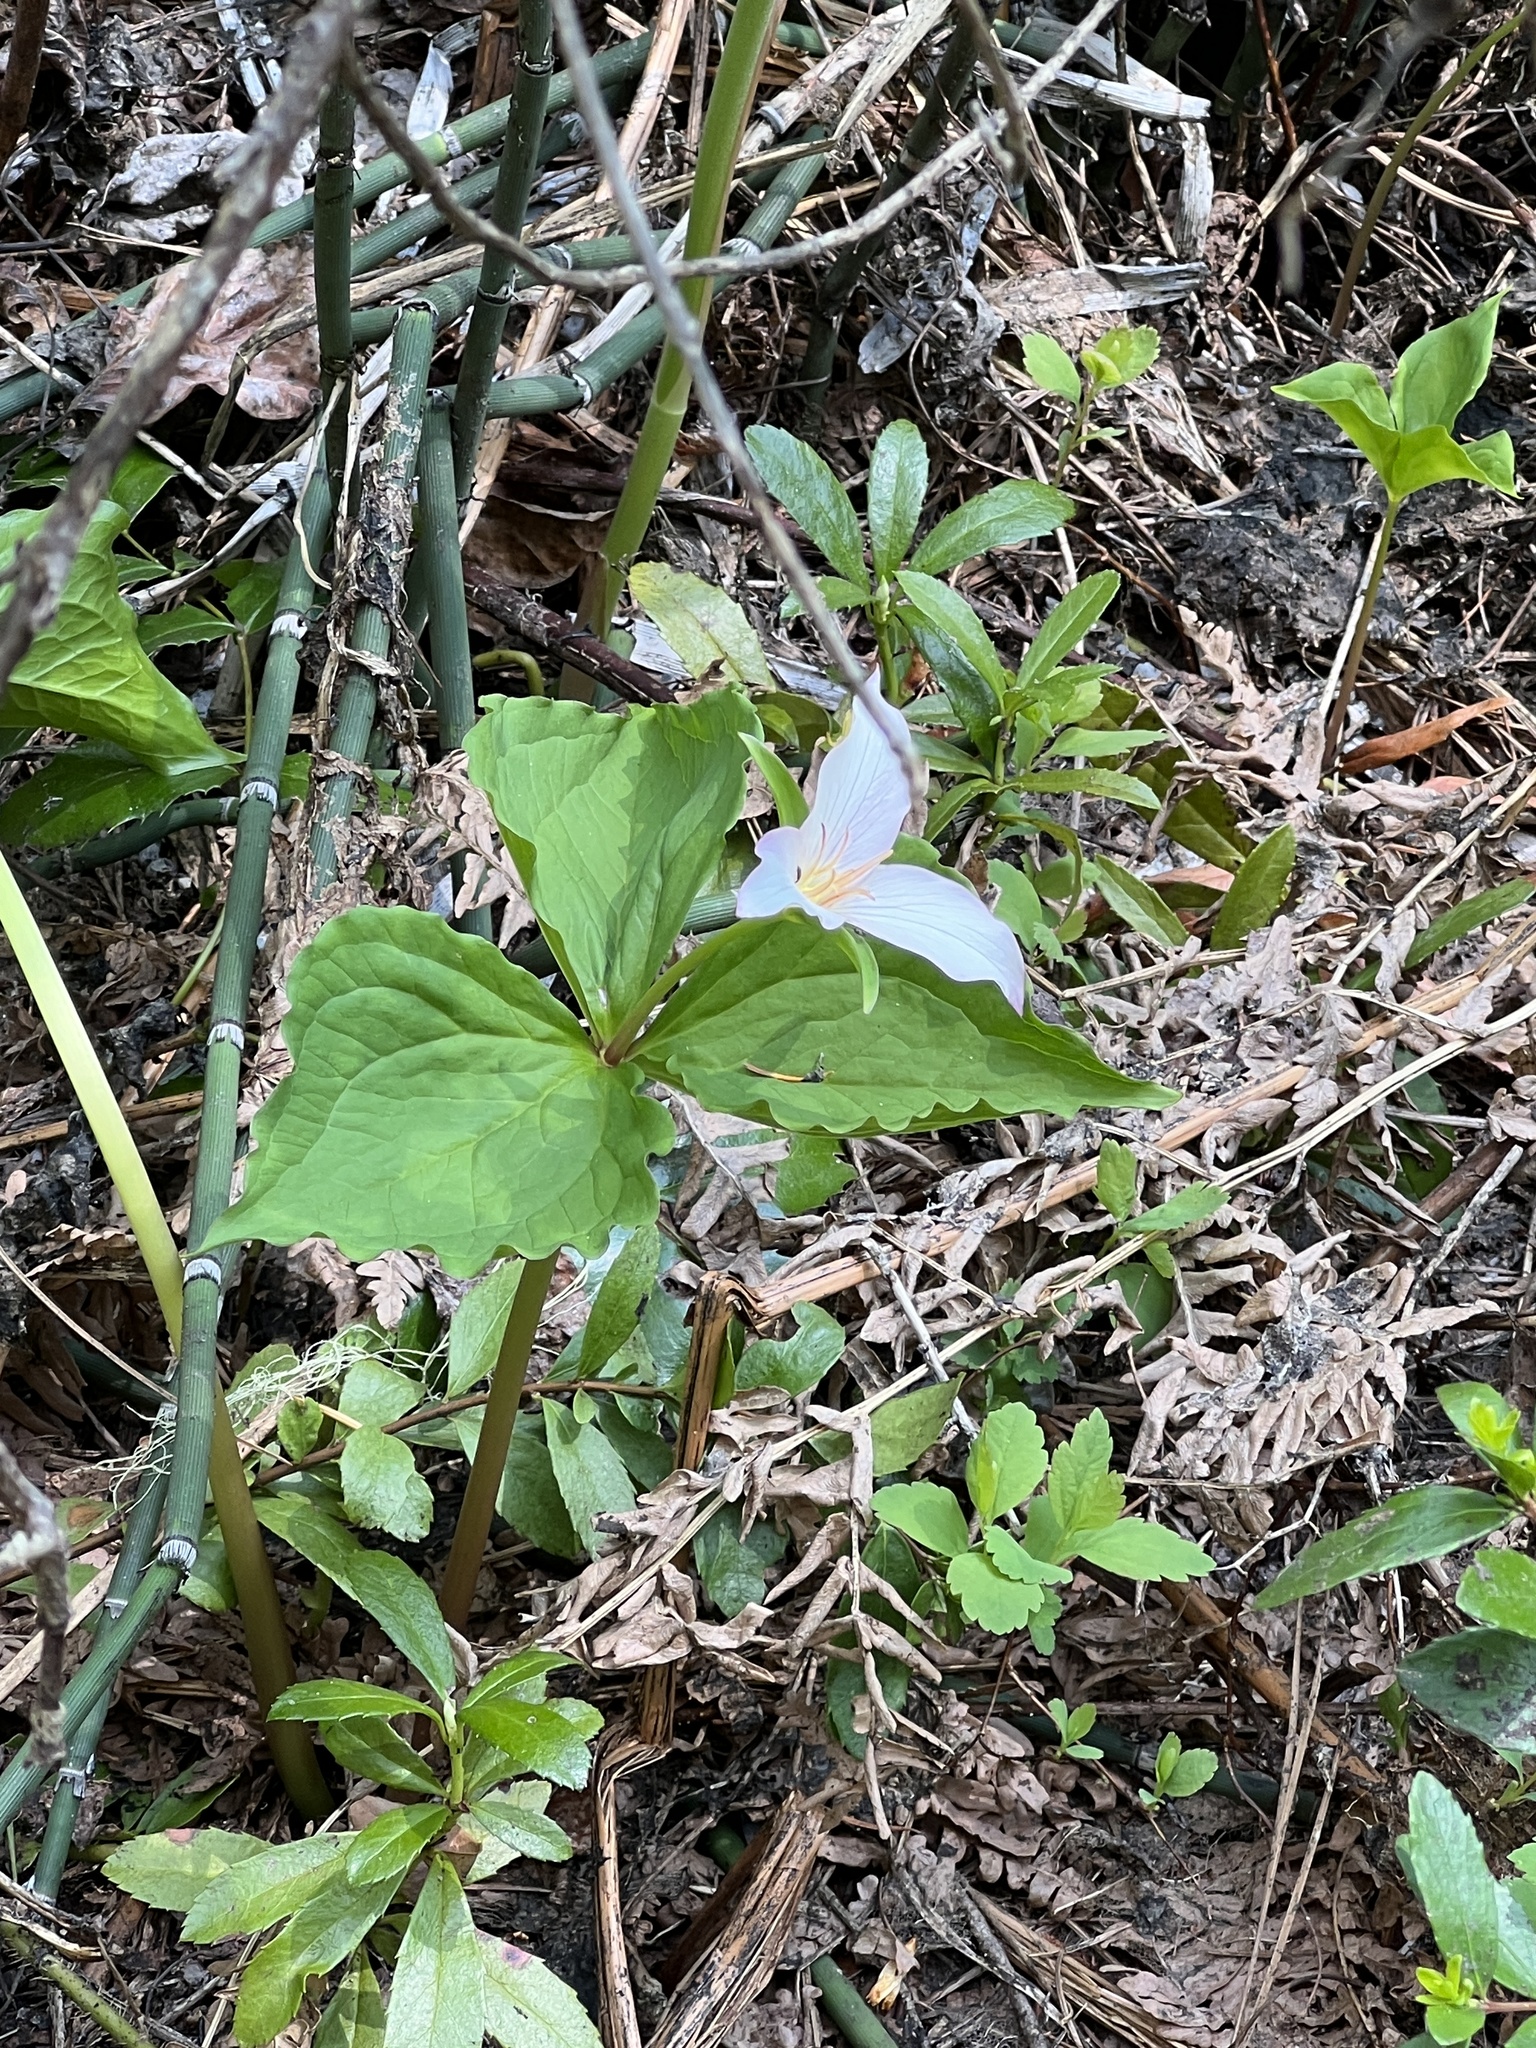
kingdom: Plantae
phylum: Tracheophyta
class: Liliopsida
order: Liliales
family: Melanthiaceae
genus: Trillium
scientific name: Trillium ovatum
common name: Pacific trillium
